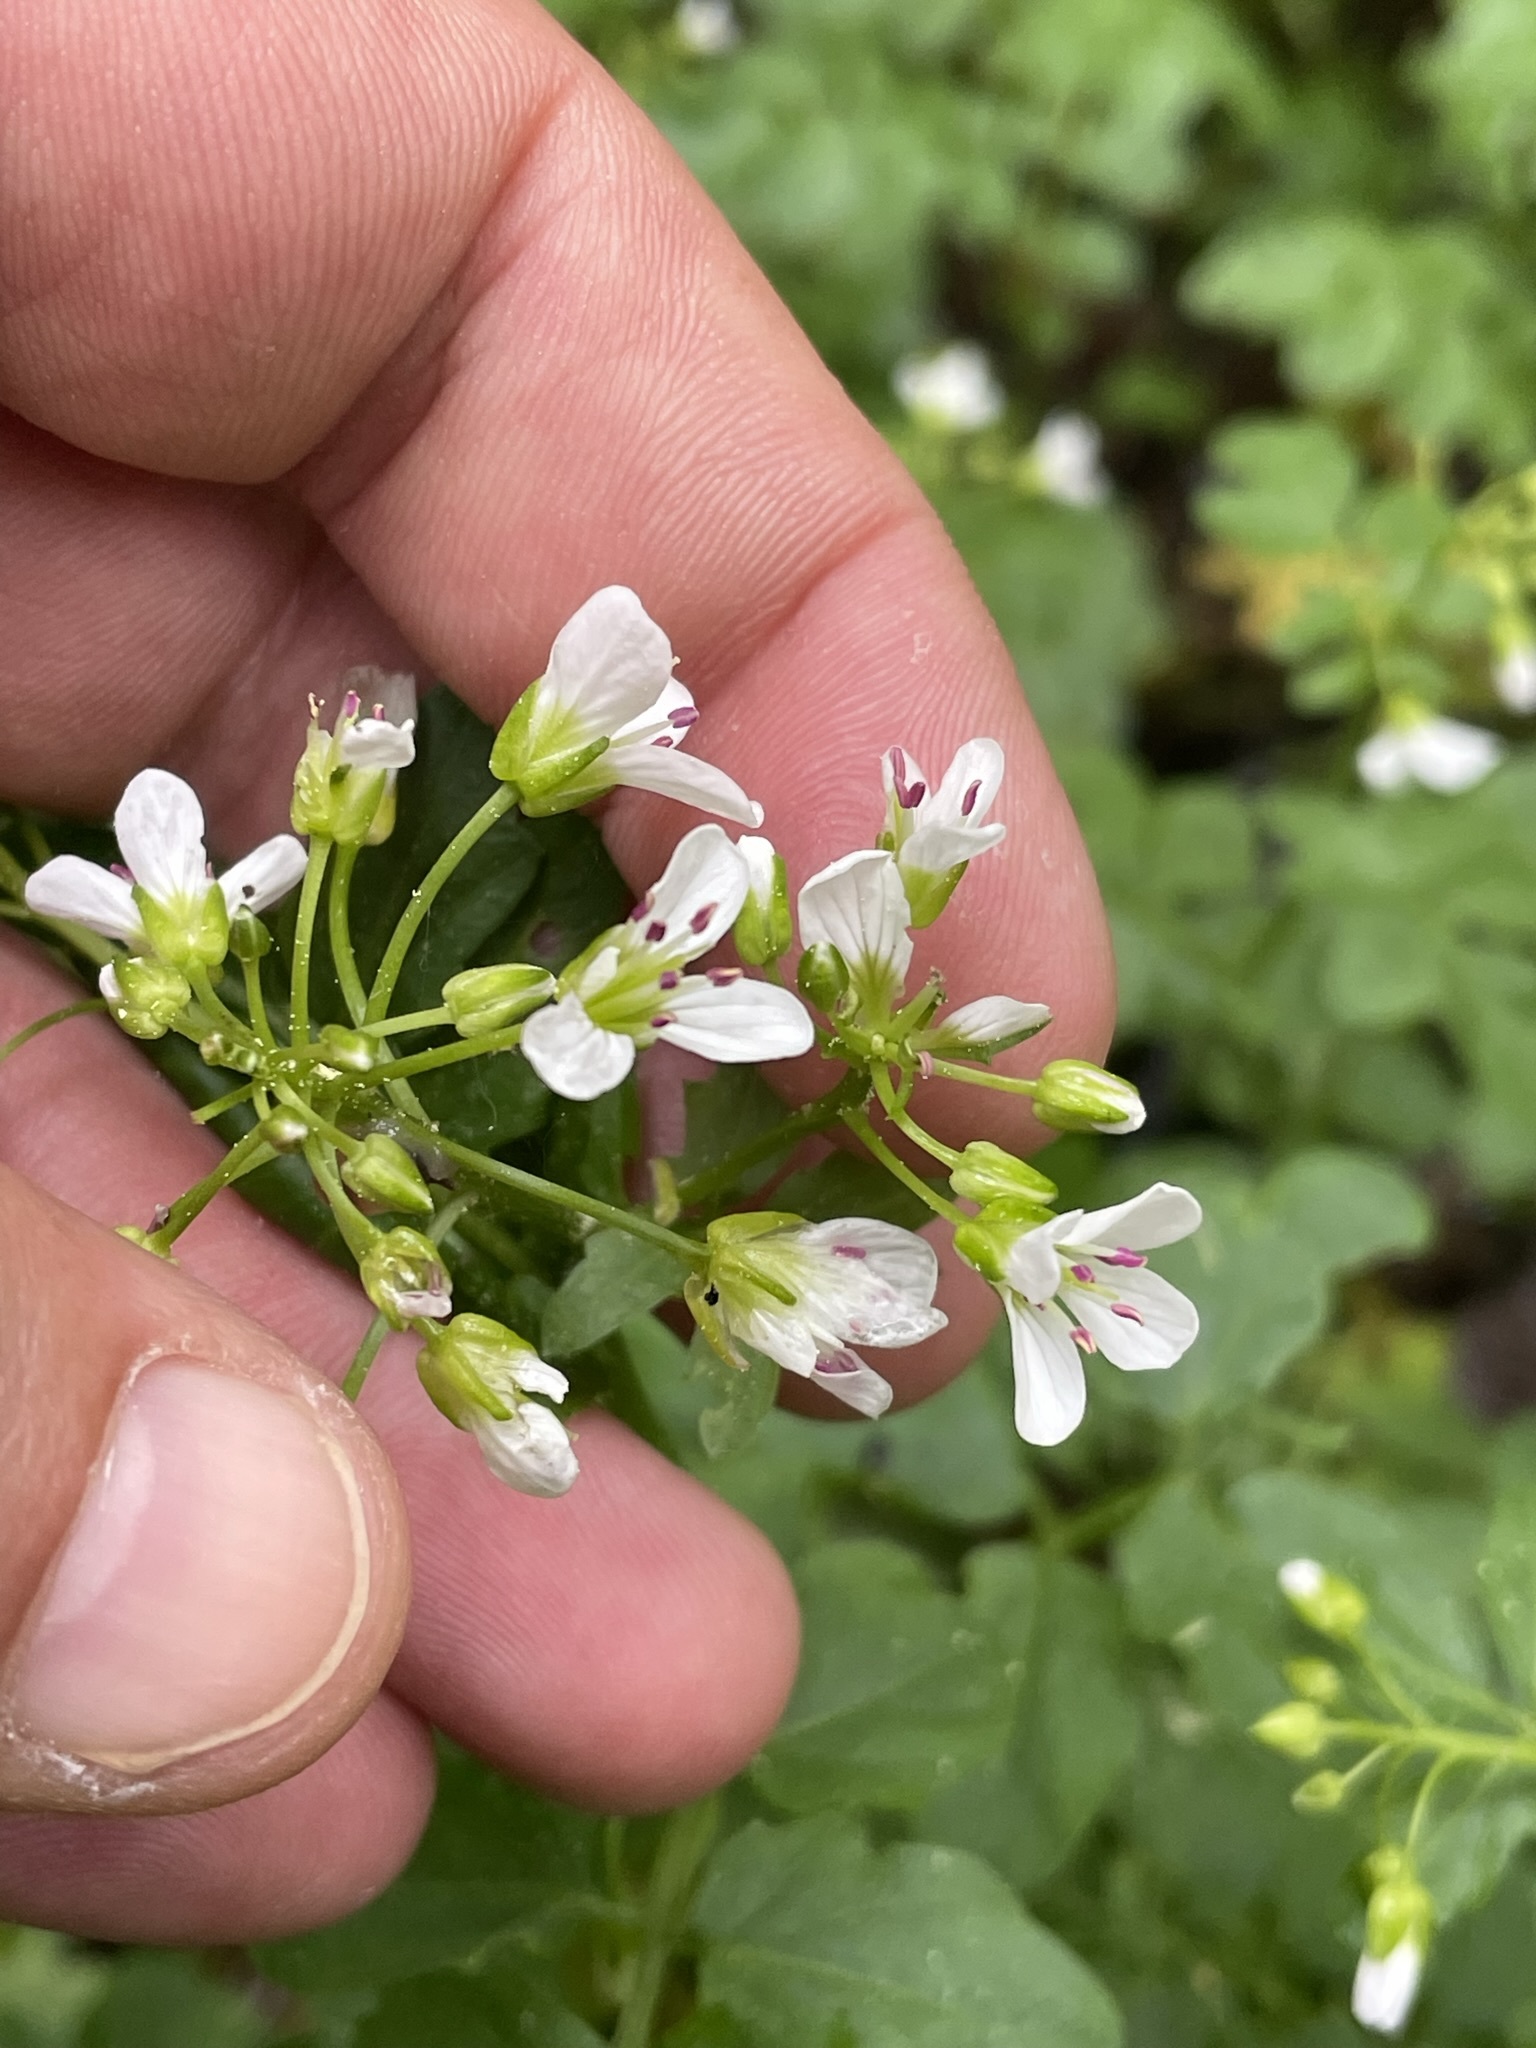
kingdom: Plantae
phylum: Tracheophyta
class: Magnoliopsida
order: Brassicales
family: Brassicaceae
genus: Cardamine
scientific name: Cardamine amara
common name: Large bitter-cress
